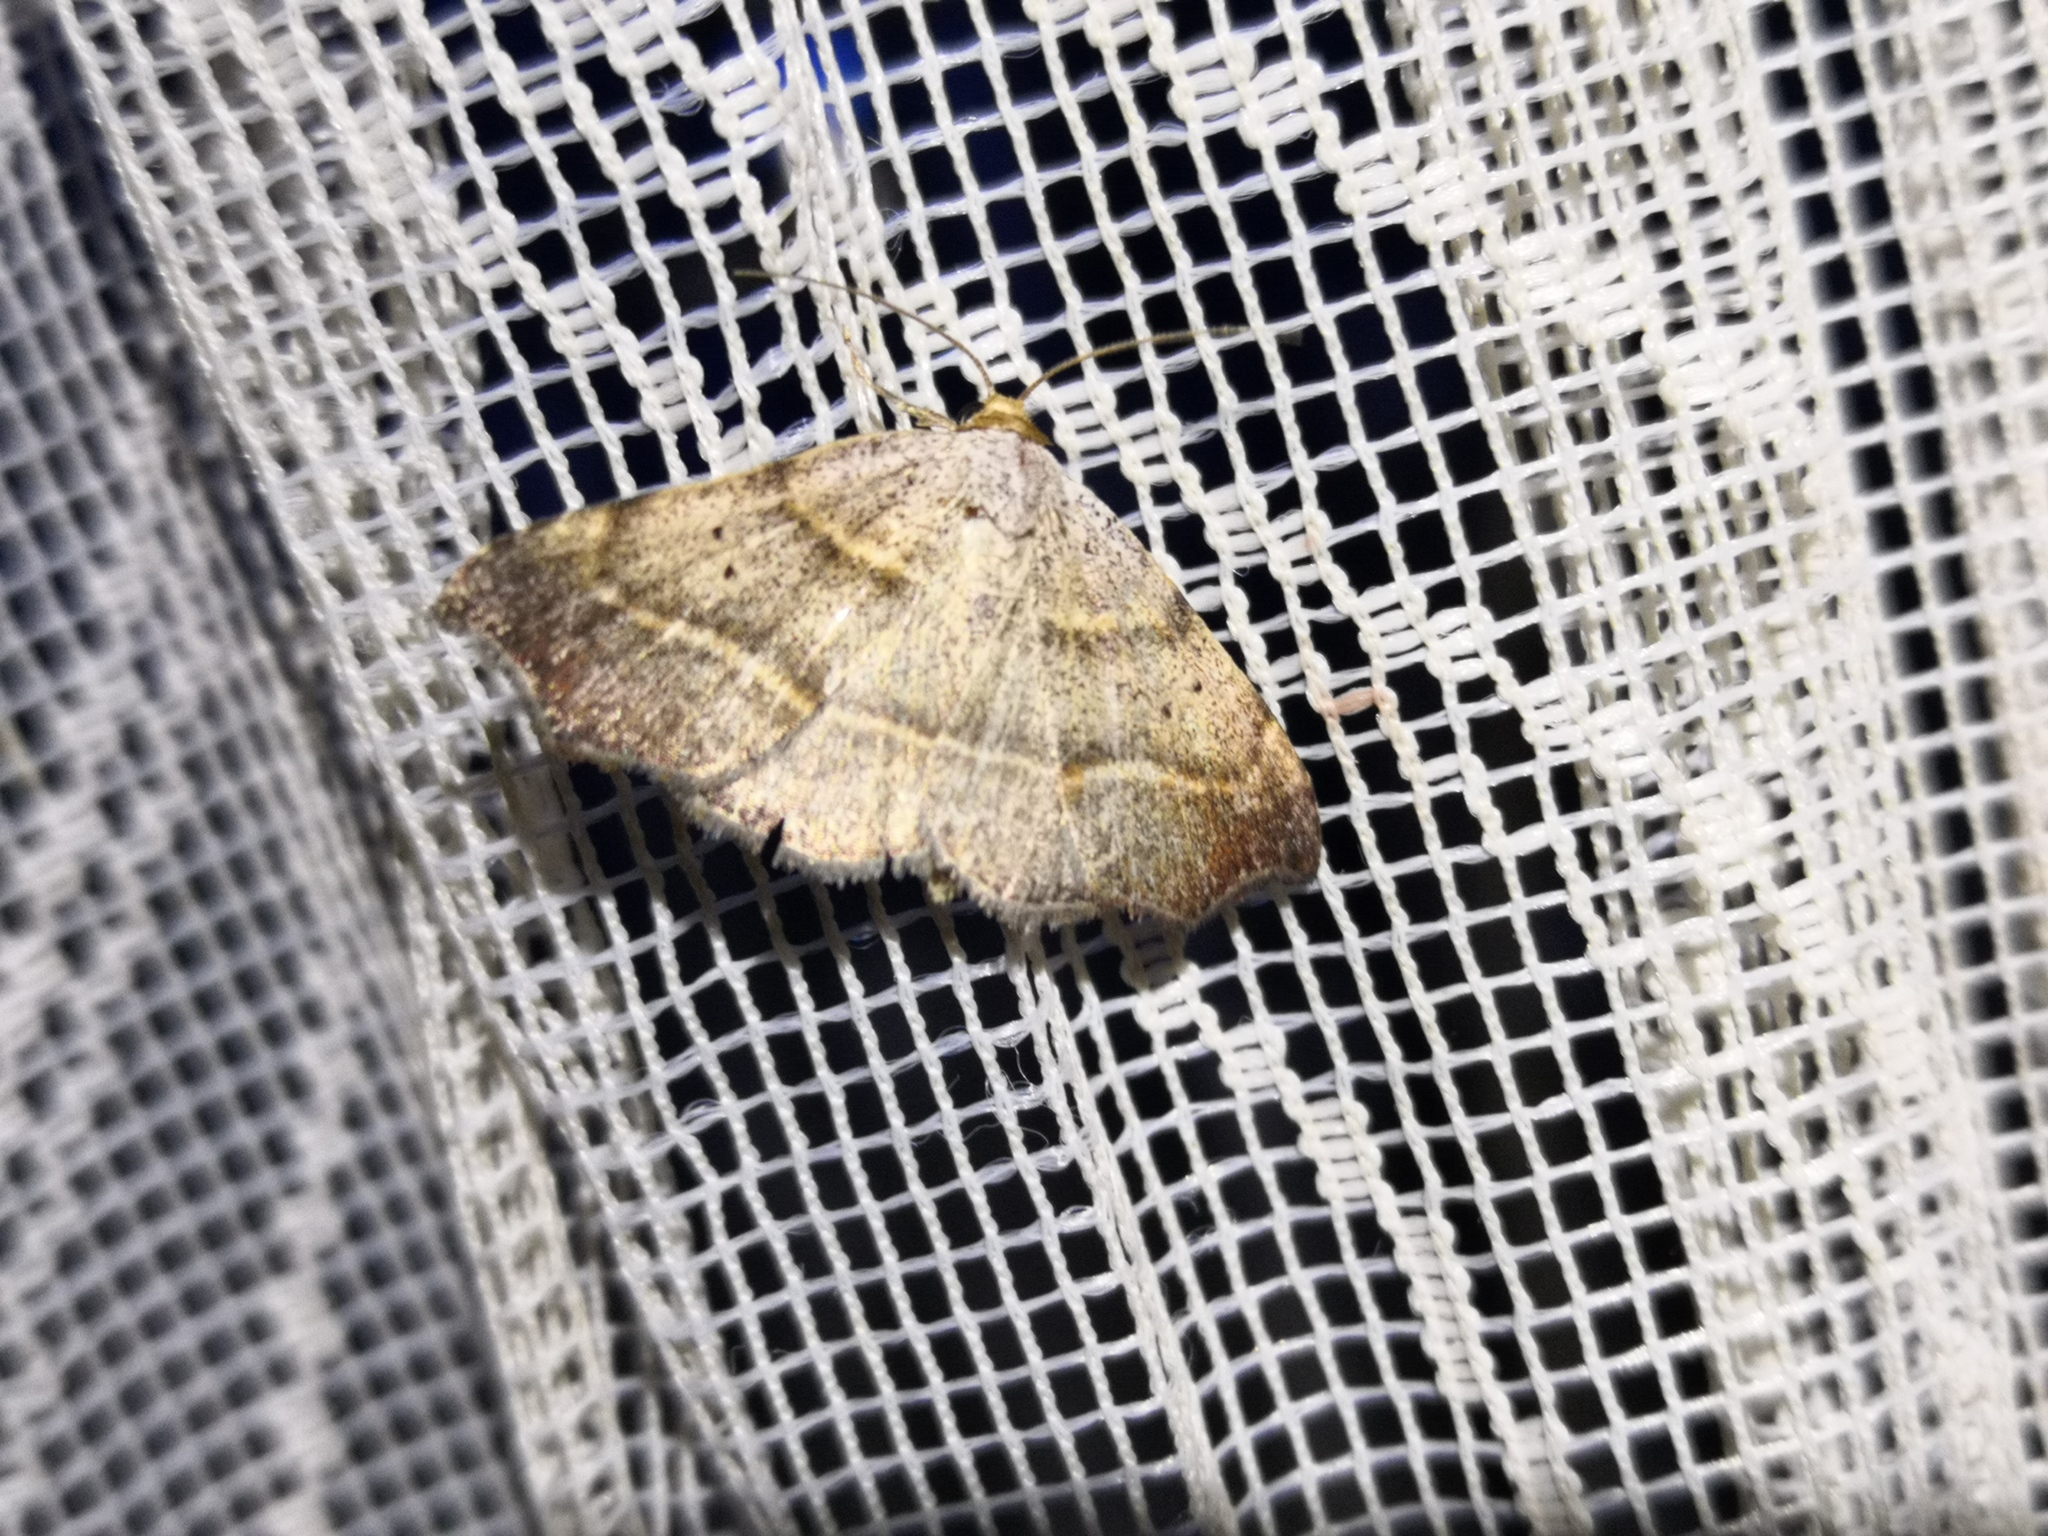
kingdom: Animalia
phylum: Arthropoda
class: Insecta
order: Lepidoptera
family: Erebidae
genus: Laspeyria
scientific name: Laspeyria flexula
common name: Beautiful hook-tip
